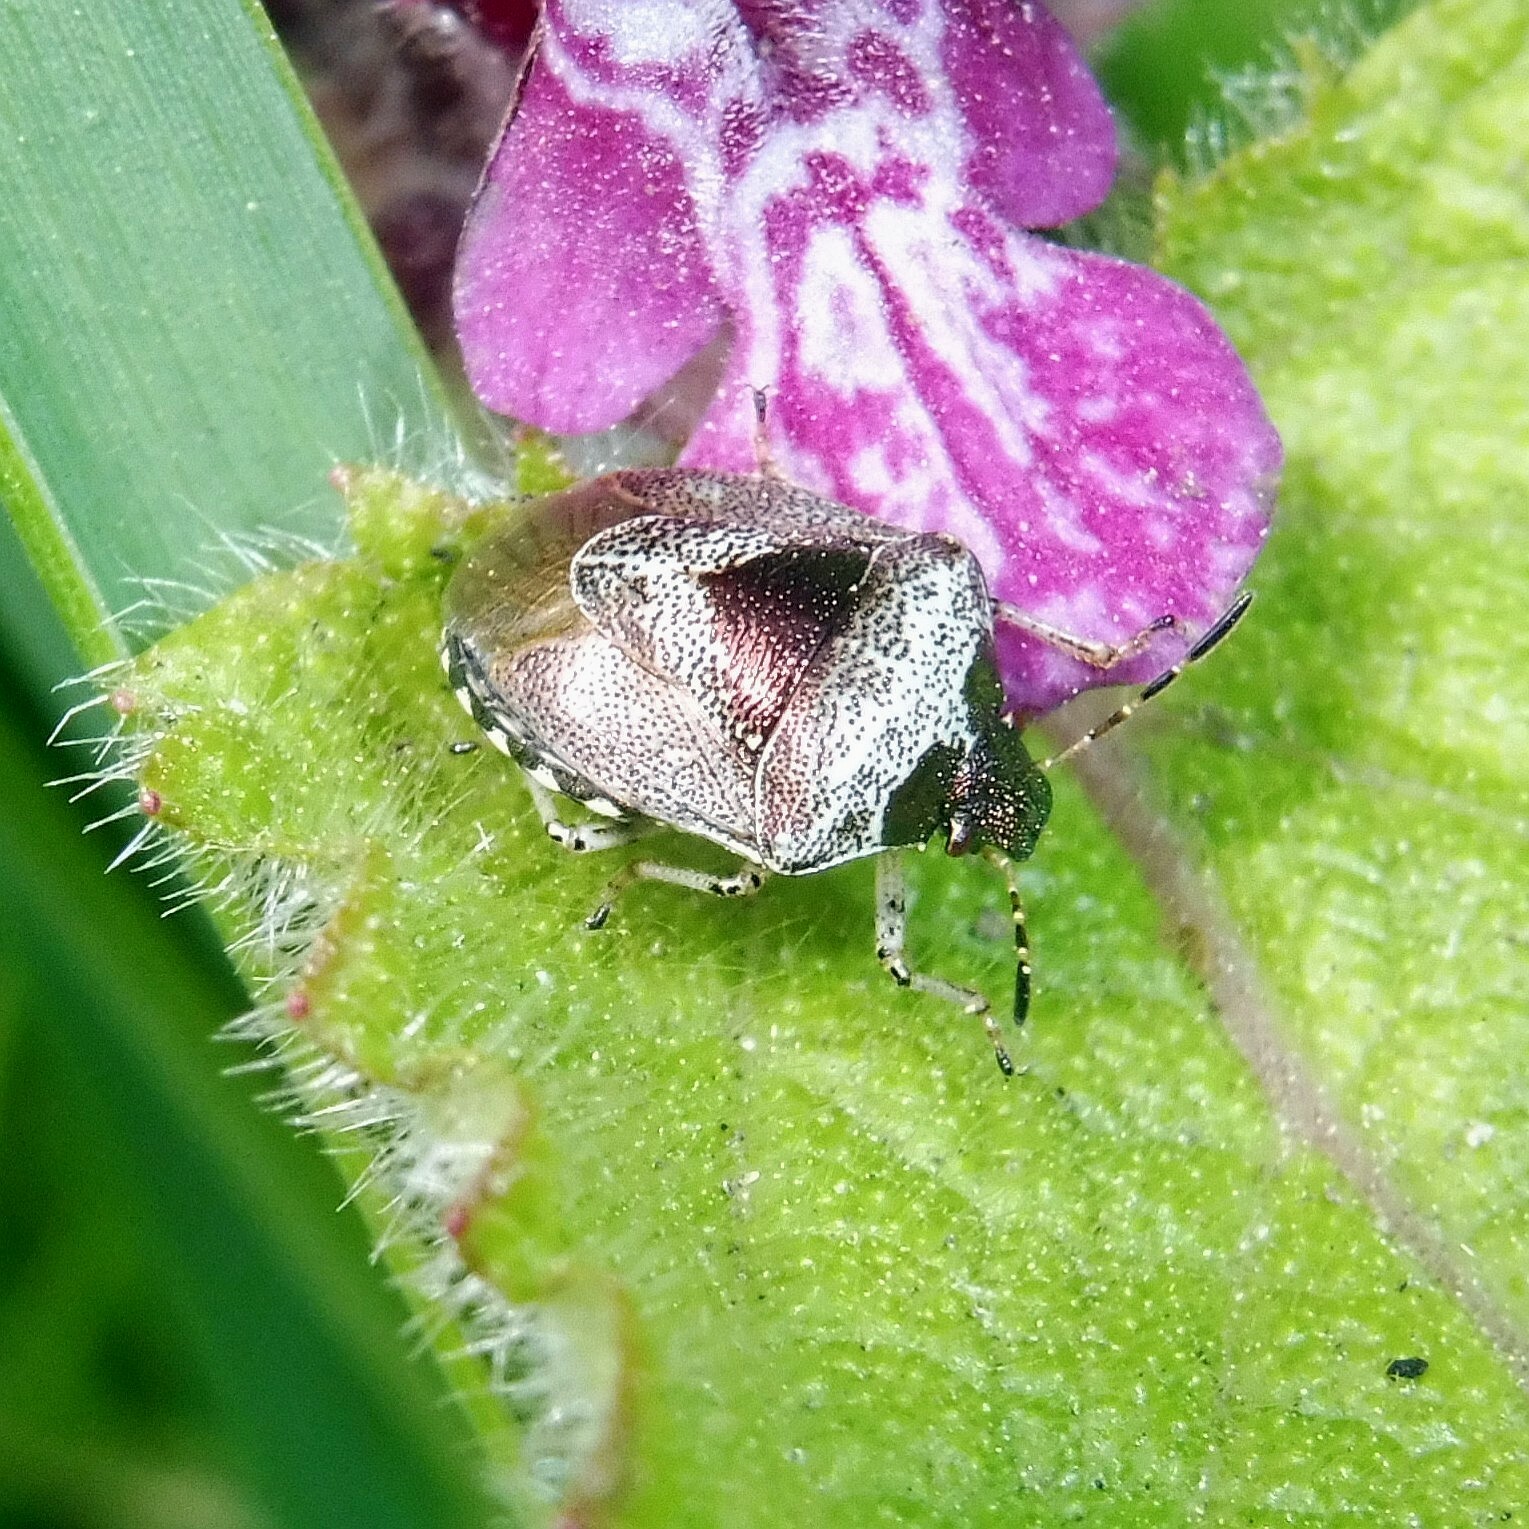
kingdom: Animalia
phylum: Arthropoda
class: Insecta
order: Hemiptera
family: Pentatomidae
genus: Eysarcoris
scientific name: Eysarcoris venustissimus
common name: Woundwort shieldbug
